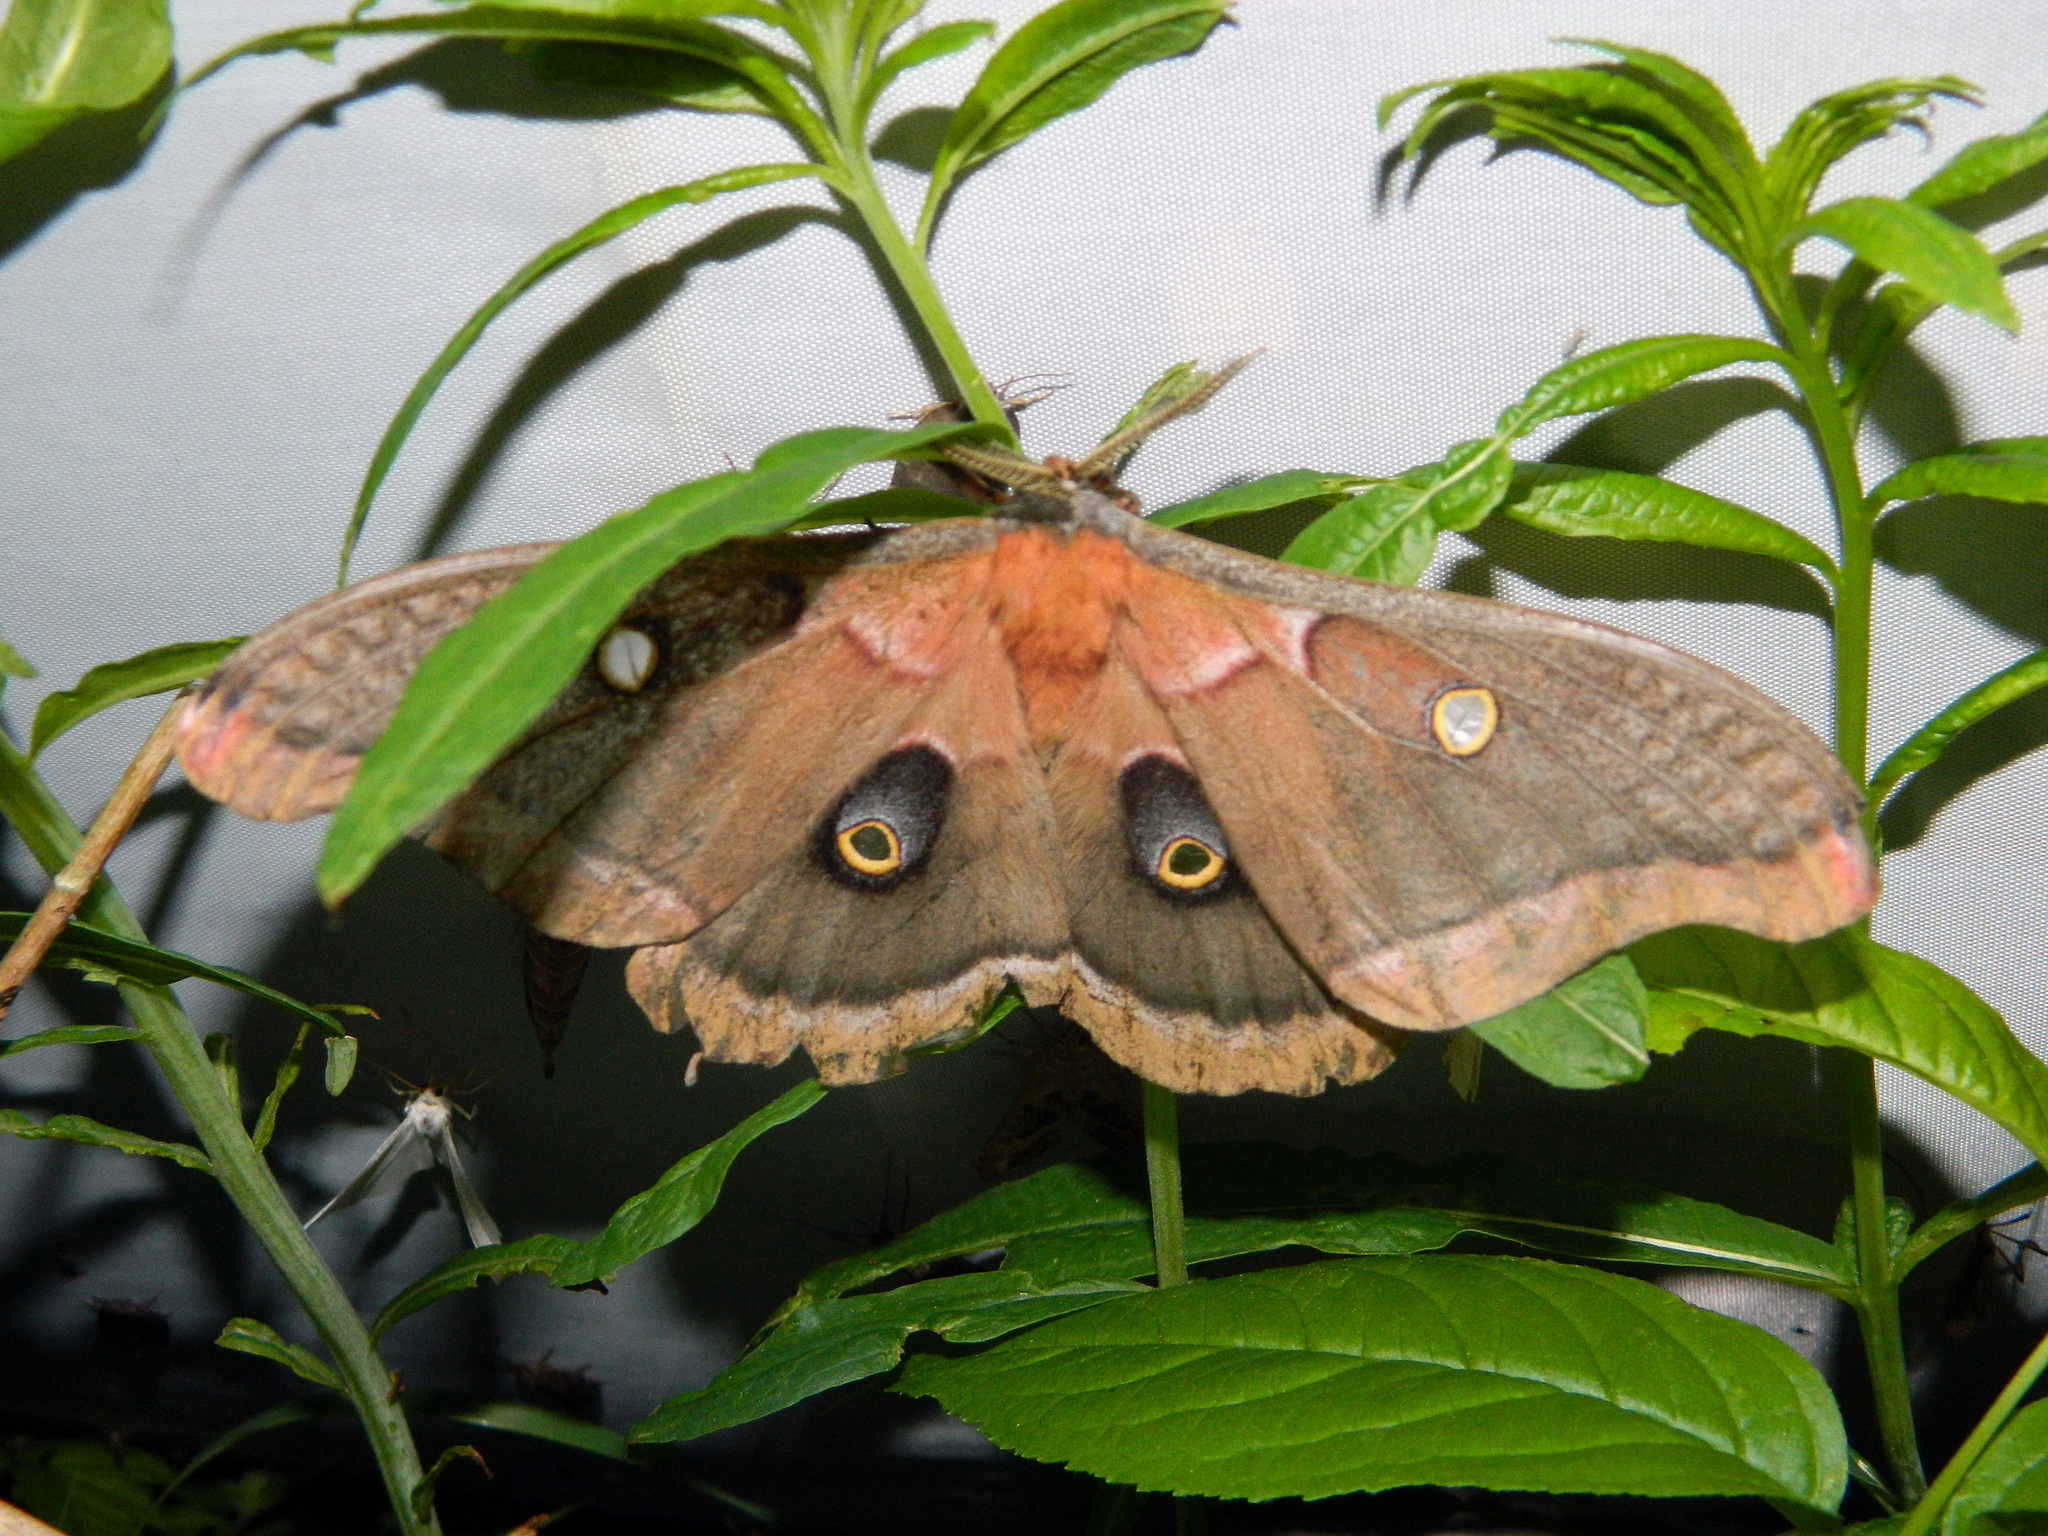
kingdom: Animalia
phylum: Arthropoda
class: Insecta
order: Lepidoptera
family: Saturniidae
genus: Antheraea
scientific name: Antheraea polyphemus
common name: Polyphemus moth
